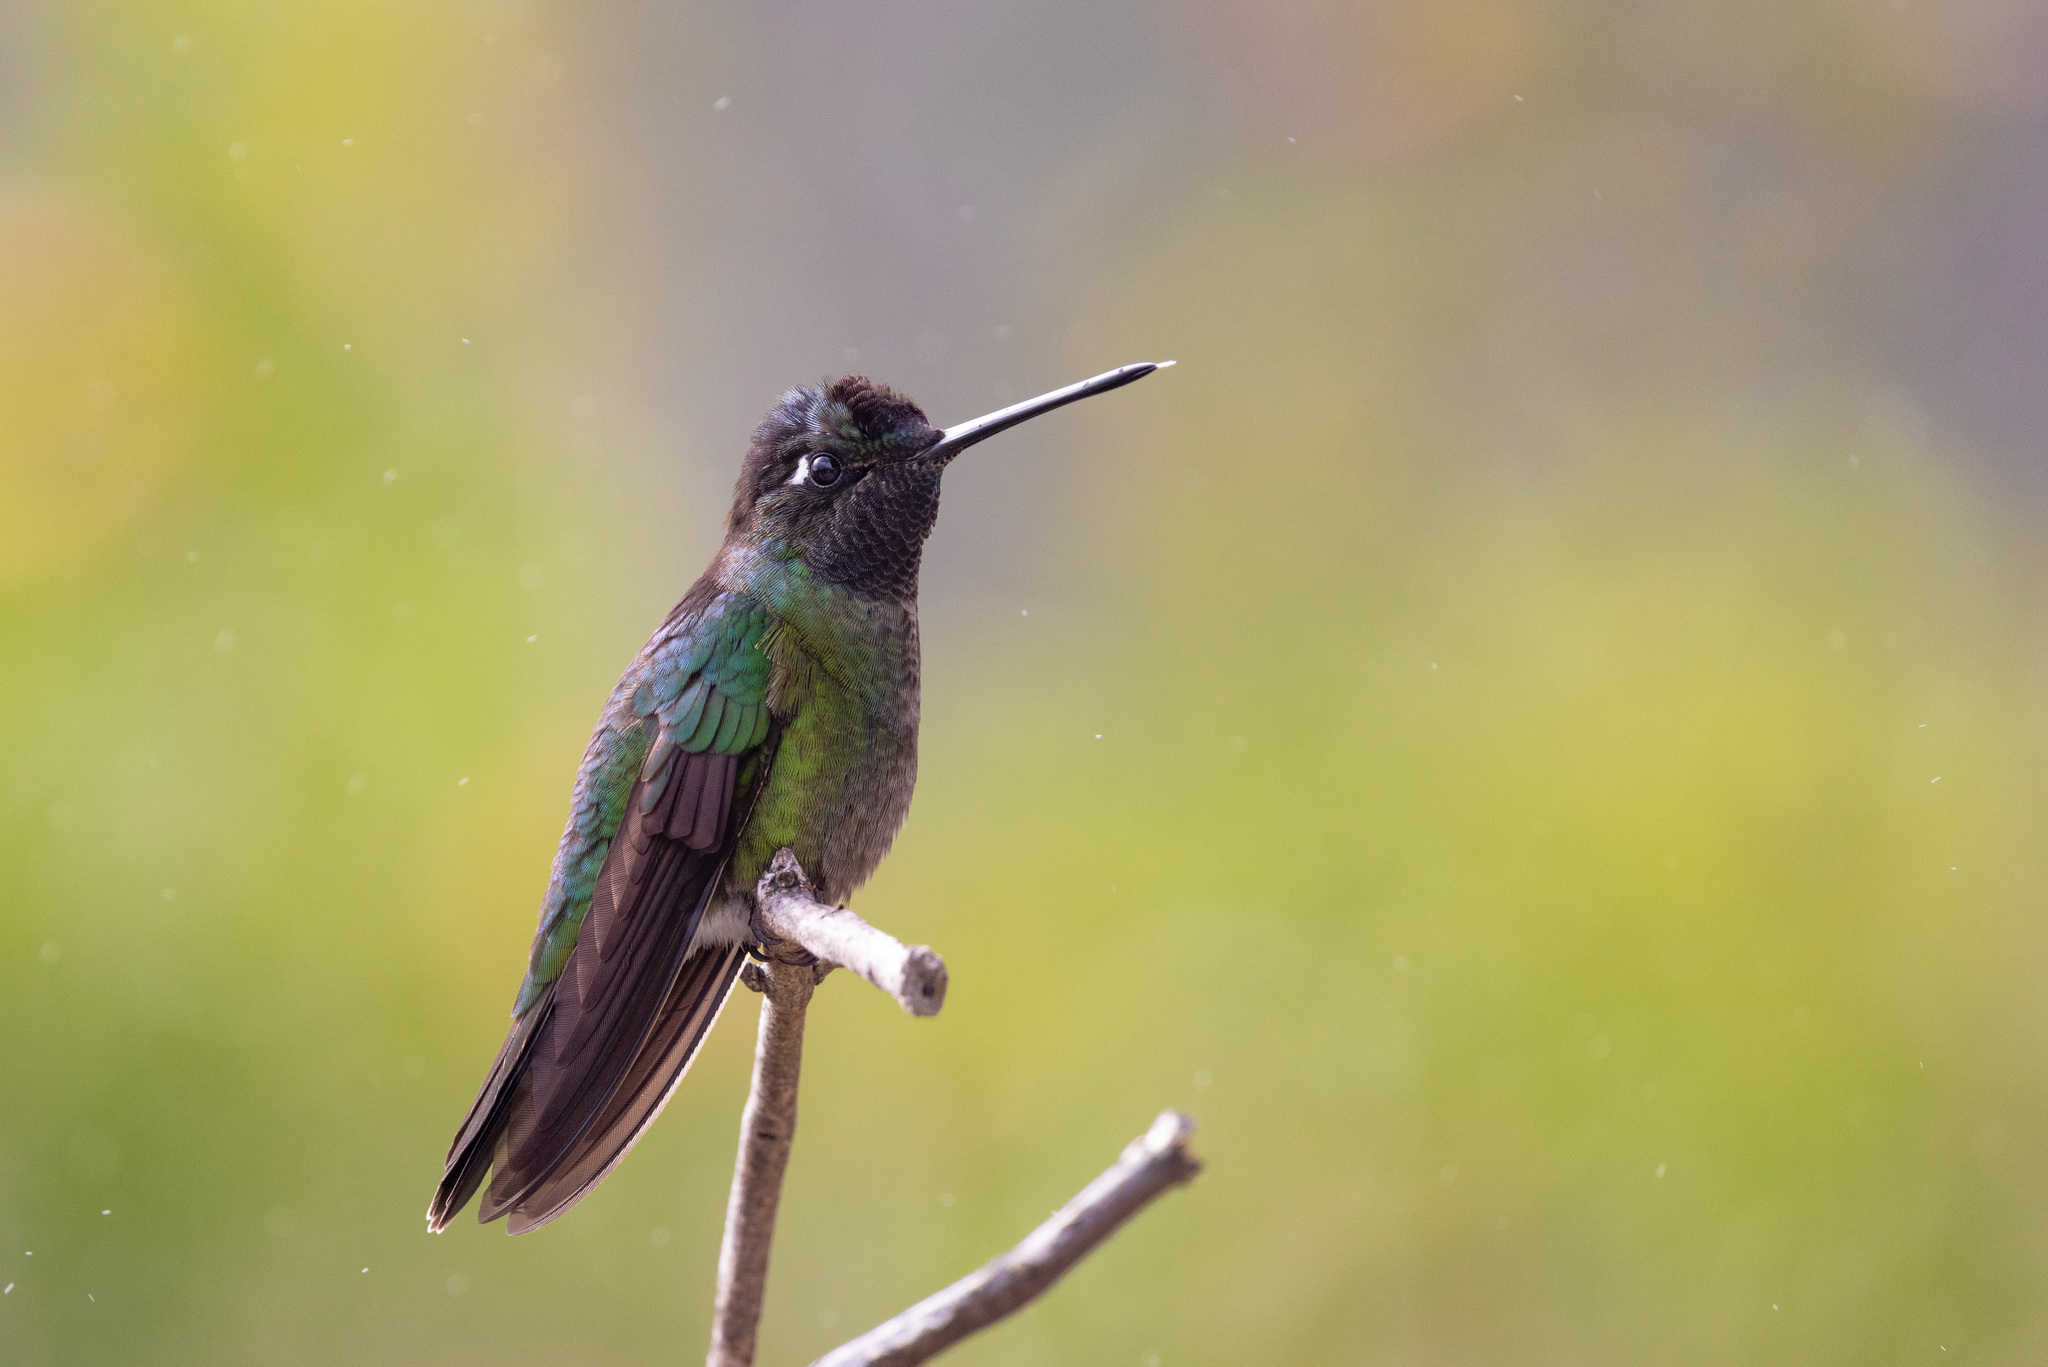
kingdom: Animalia
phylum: Chordata
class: Aves
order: Apodiformes
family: Trochilidae
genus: Eugenes
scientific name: Eugenes spectabilis
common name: Talamanca hummingbird
